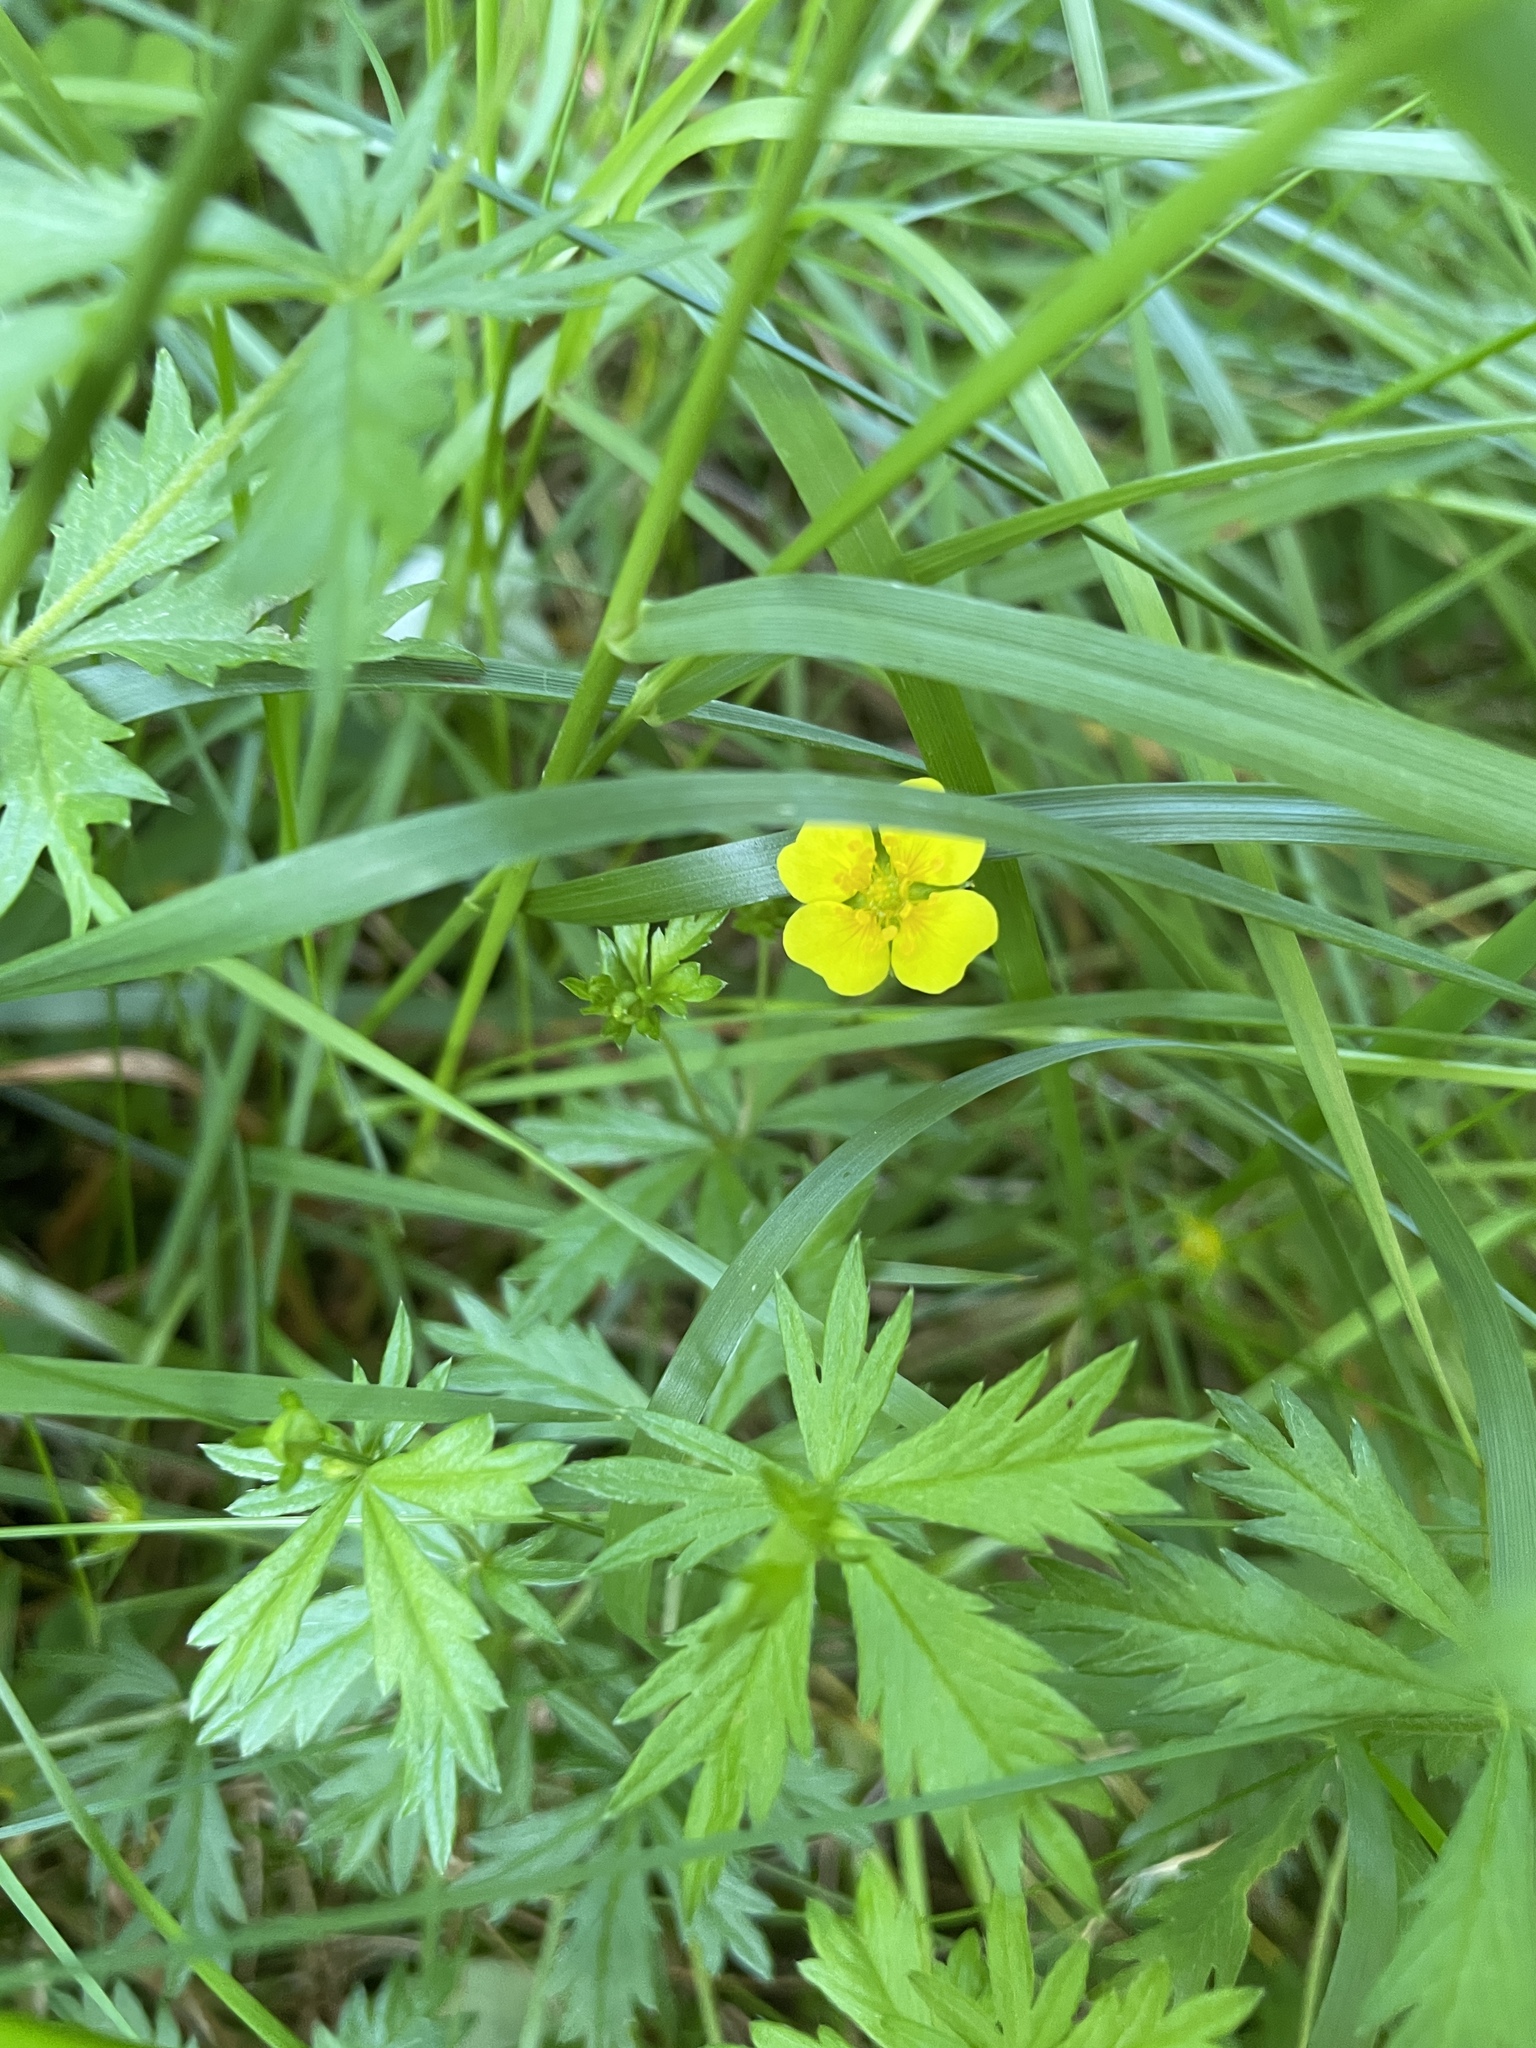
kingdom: Plantae
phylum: Tracheophyta
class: Magnoliopsida
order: Rosales
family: Rosaceae
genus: Potentilla
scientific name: Potentilla erecta
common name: Tormentil
